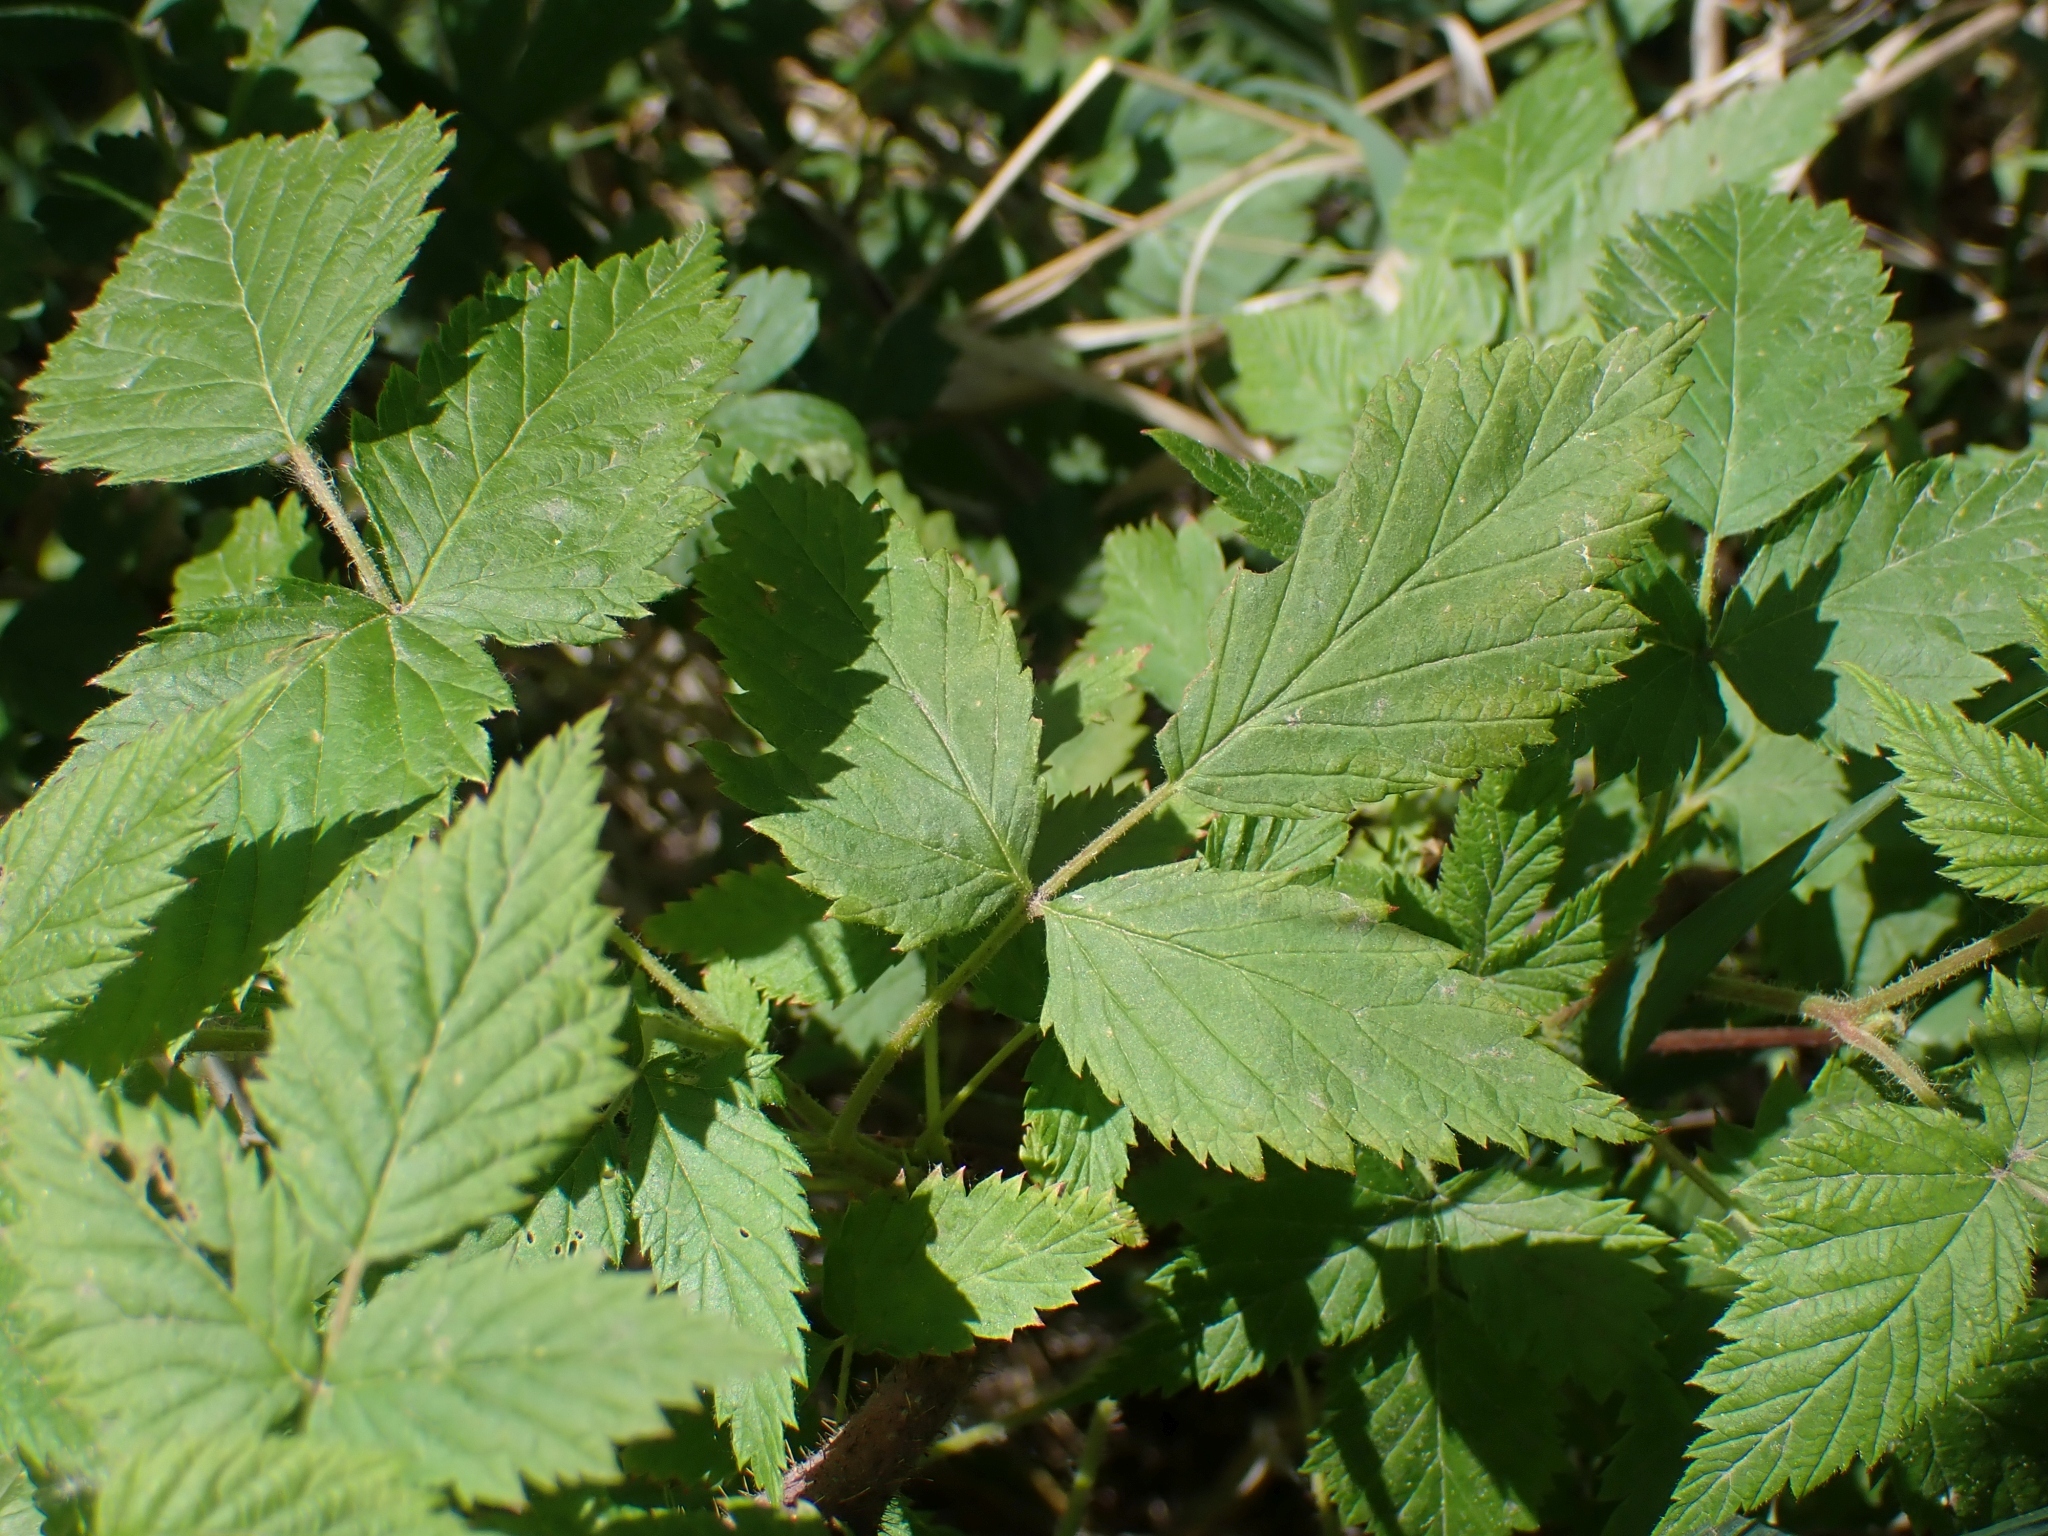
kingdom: Plantae
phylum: Tracheophyta
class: Magnoliopsida
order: Rosales
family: Rosaceae
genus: Rubus
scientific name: Rubus idaeus
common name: Raspberry
